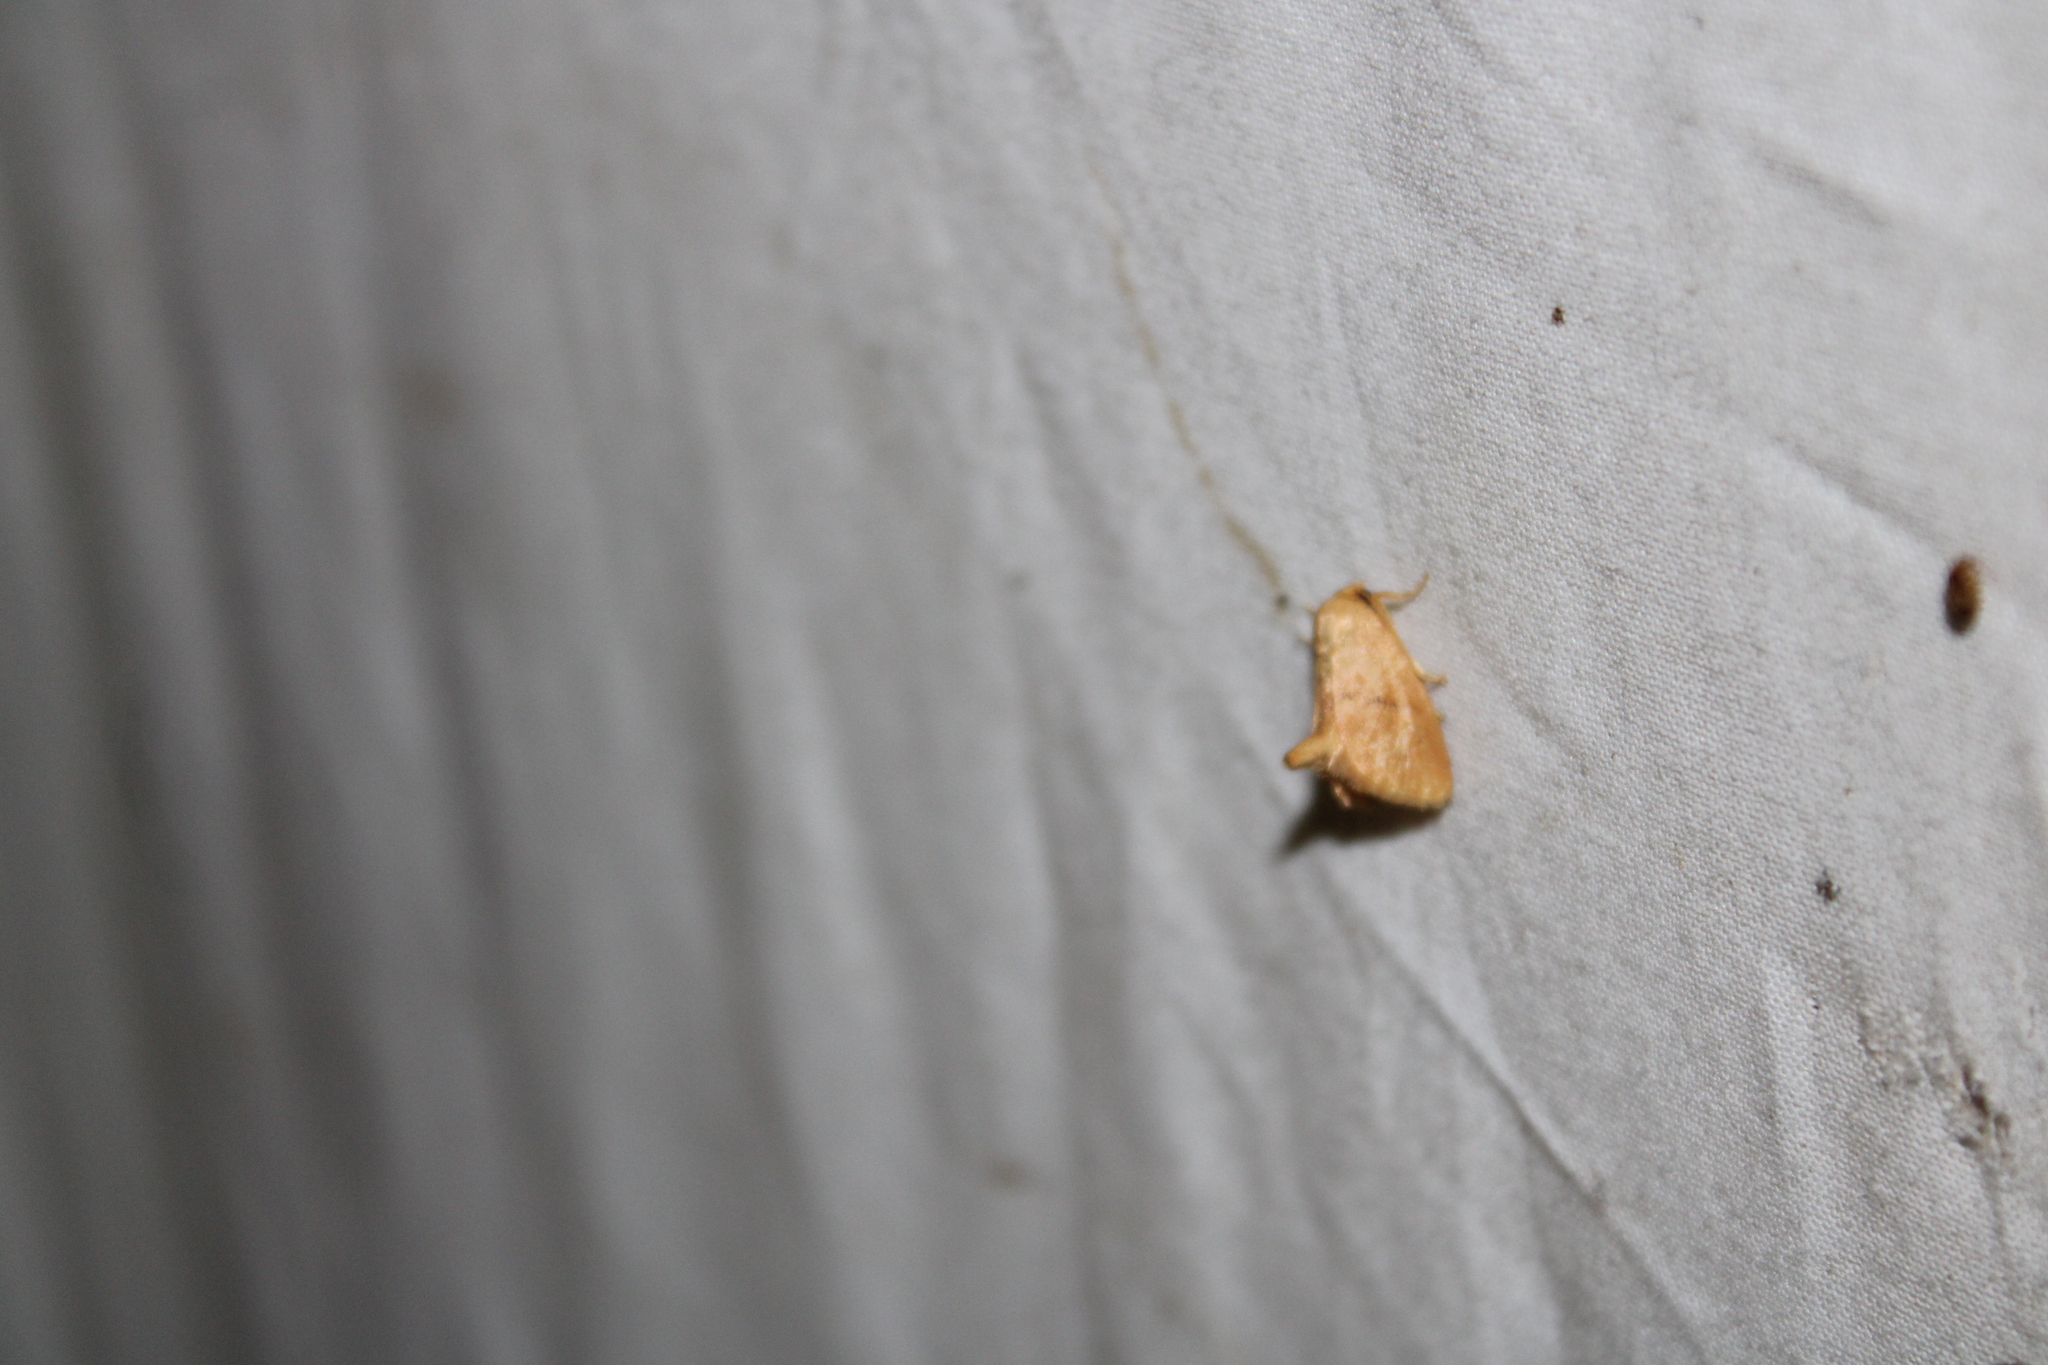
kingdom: Animalia
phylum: Arthropoda
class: Insecta
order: Lepidoptera
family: Limacodidae
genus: Tortricidia
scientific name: Tortricidia pallida
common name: Red-crossed button slug moth
